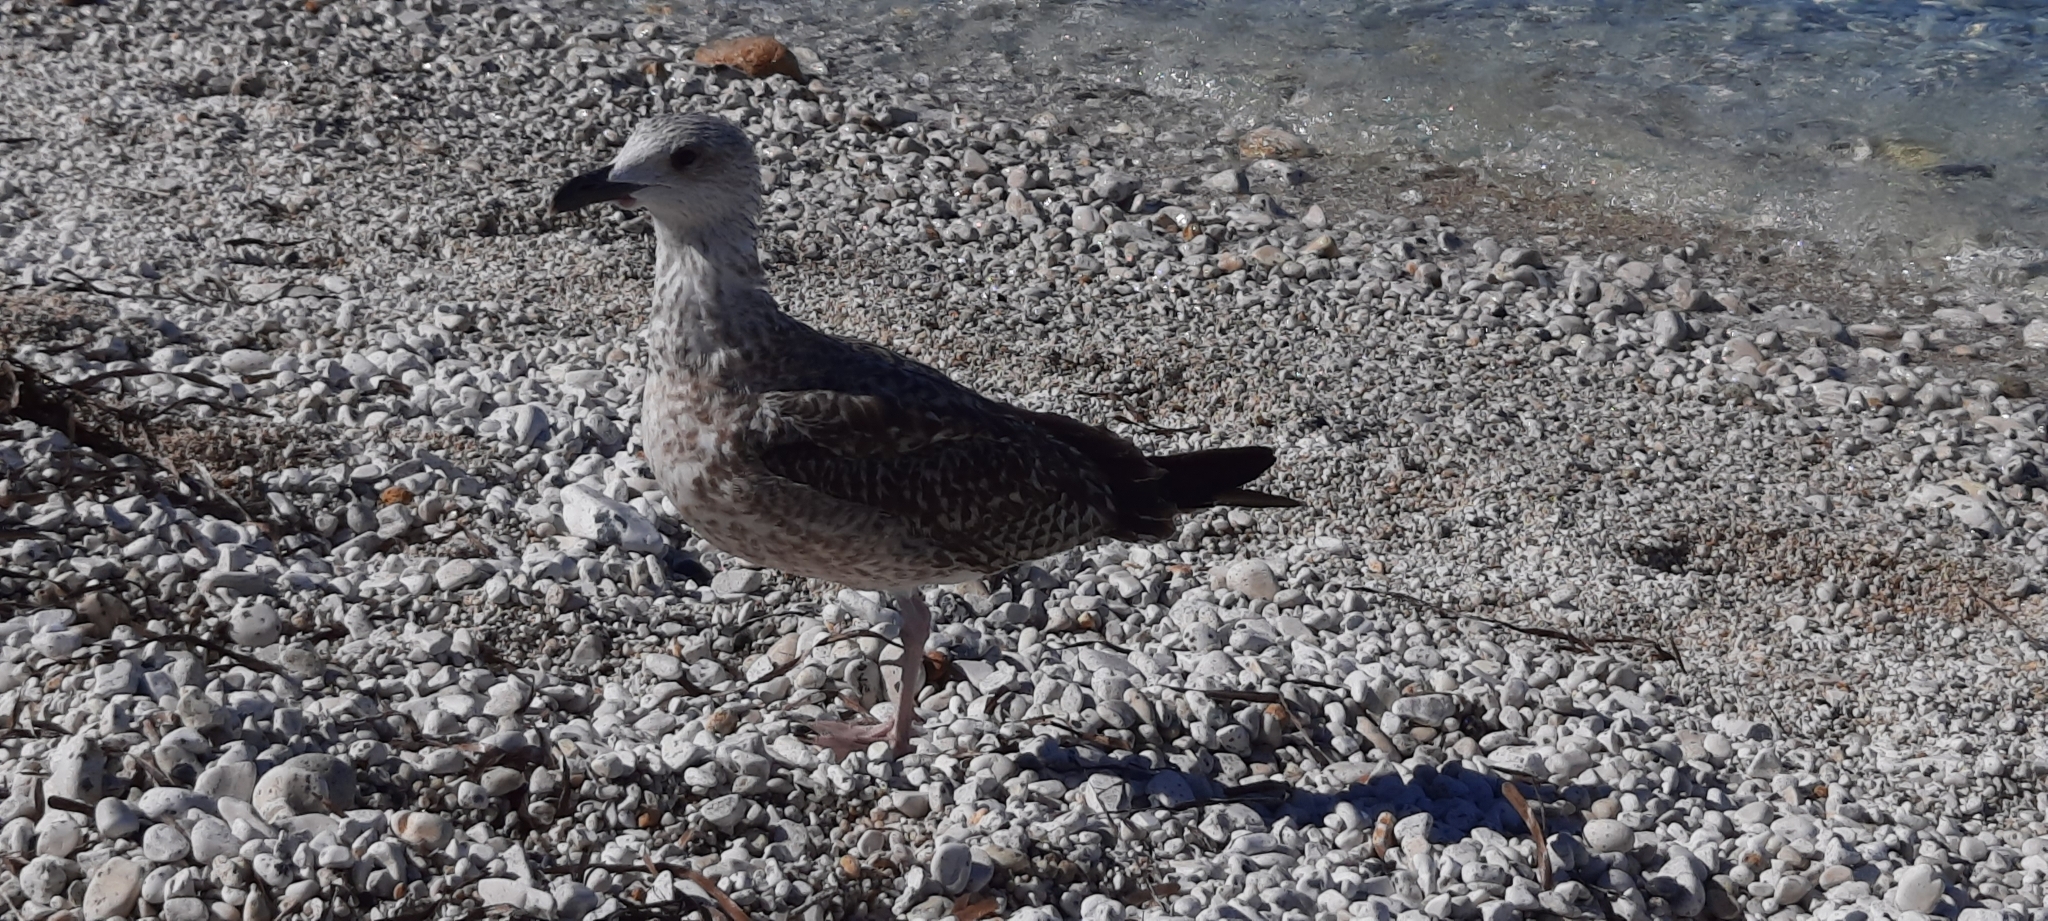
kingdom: Animalia
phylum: Chordata
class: Aves
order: Charadriiformes
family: Laridae
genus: Larus
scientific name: Larus michahellis
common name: Yellow-legged gull
